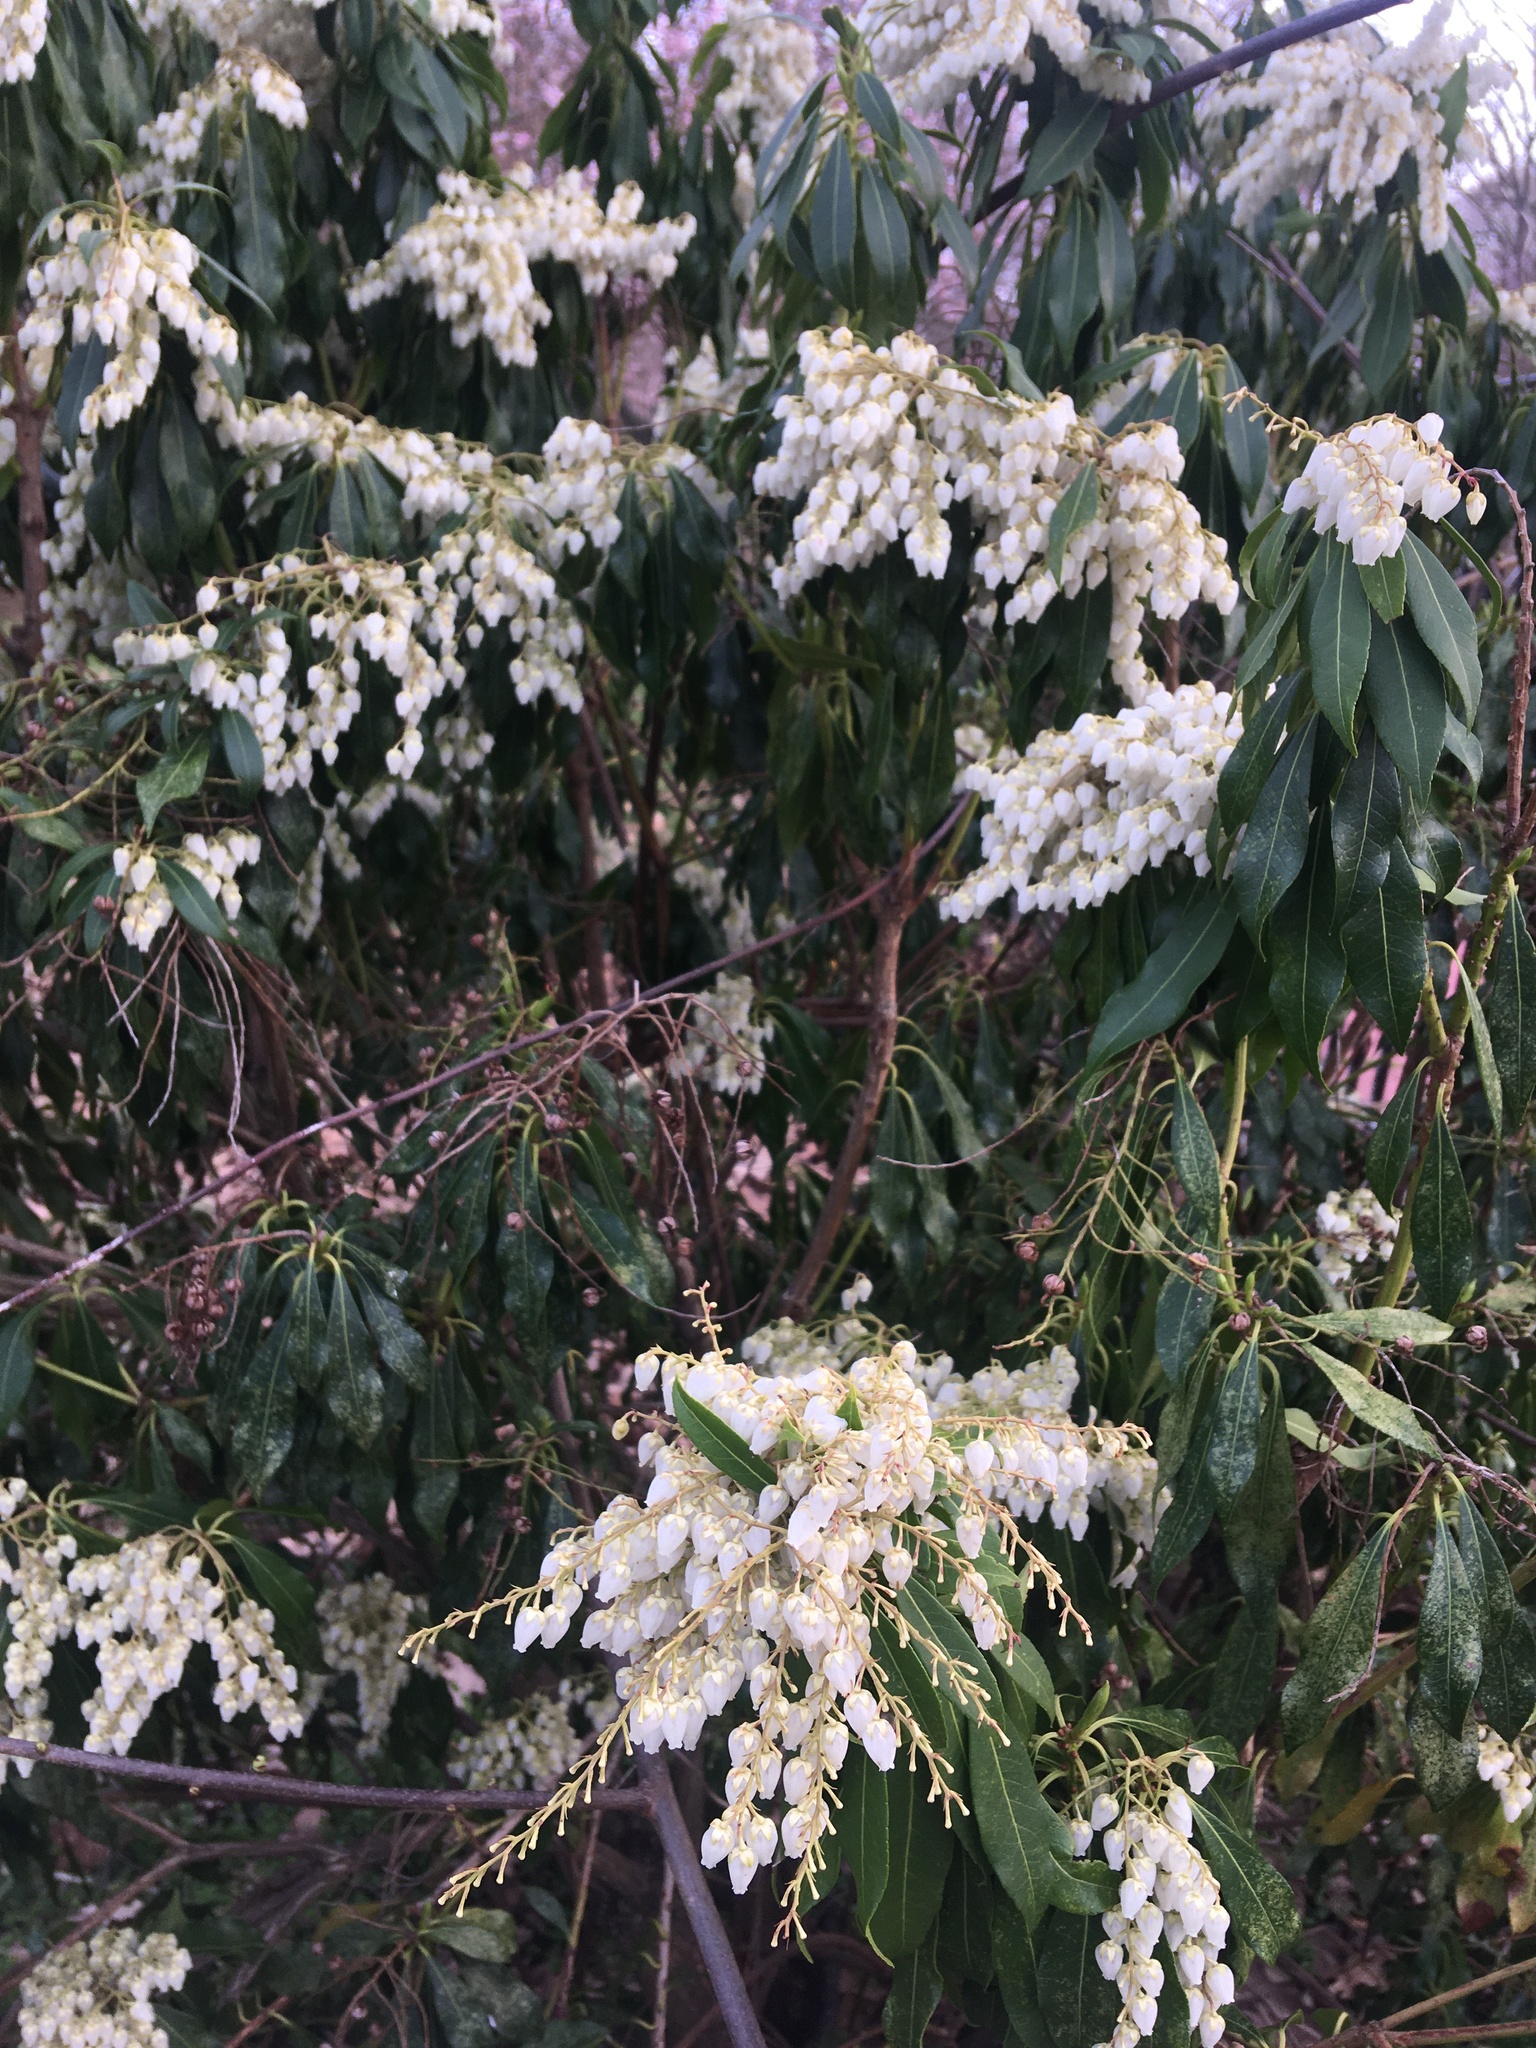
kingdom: Plantae
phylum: Tracheophyta
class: Magnoliopsida
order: Ericales
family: Ericaceae
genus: Pieris
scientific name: Pieris japonica
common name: Japanese pieris
